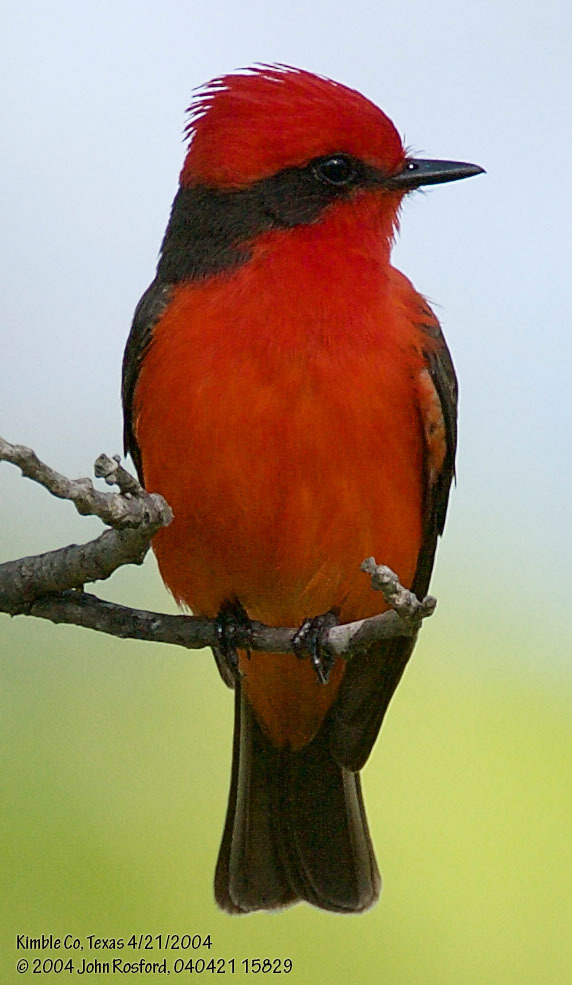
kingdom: Animalia
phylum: Chordata
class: Aves
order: Passeriformes
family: Tyrannidae
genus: Pyrocephalus
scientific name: Pyrocephalus rubinus
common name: Vermilion flycatcher
